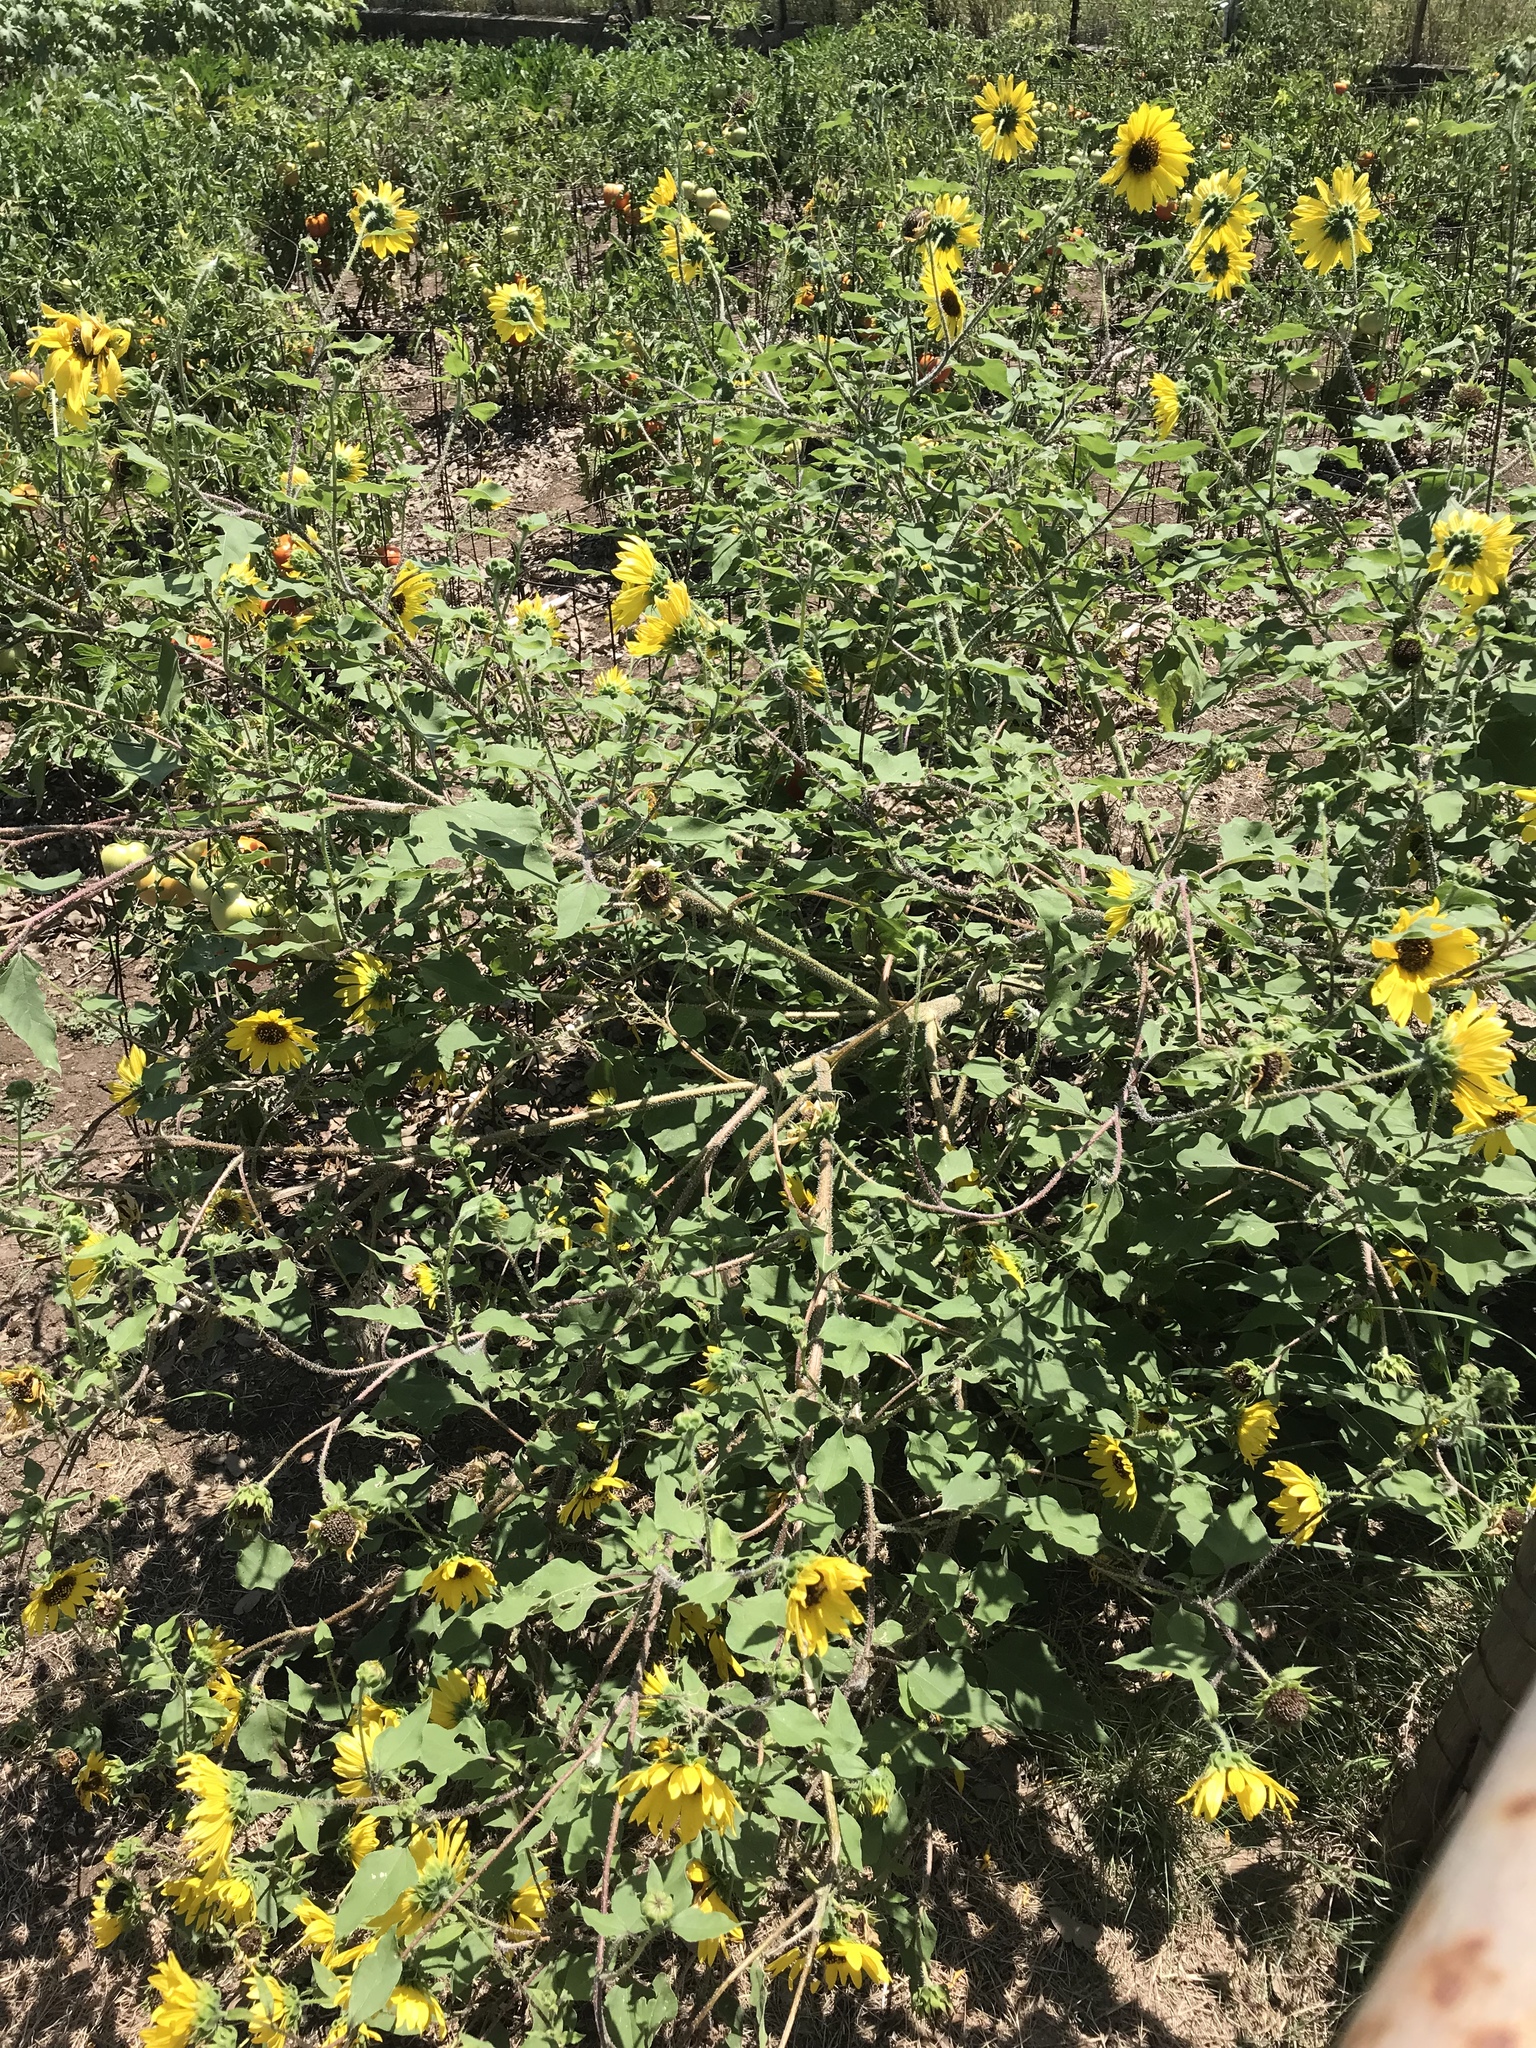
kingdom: Plantae
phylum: Tracheophyta
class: Magnoliopsida
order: Asterales
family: Asteraceae
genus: Helianthus
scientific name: Helianthus annuus
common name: Sunflower
